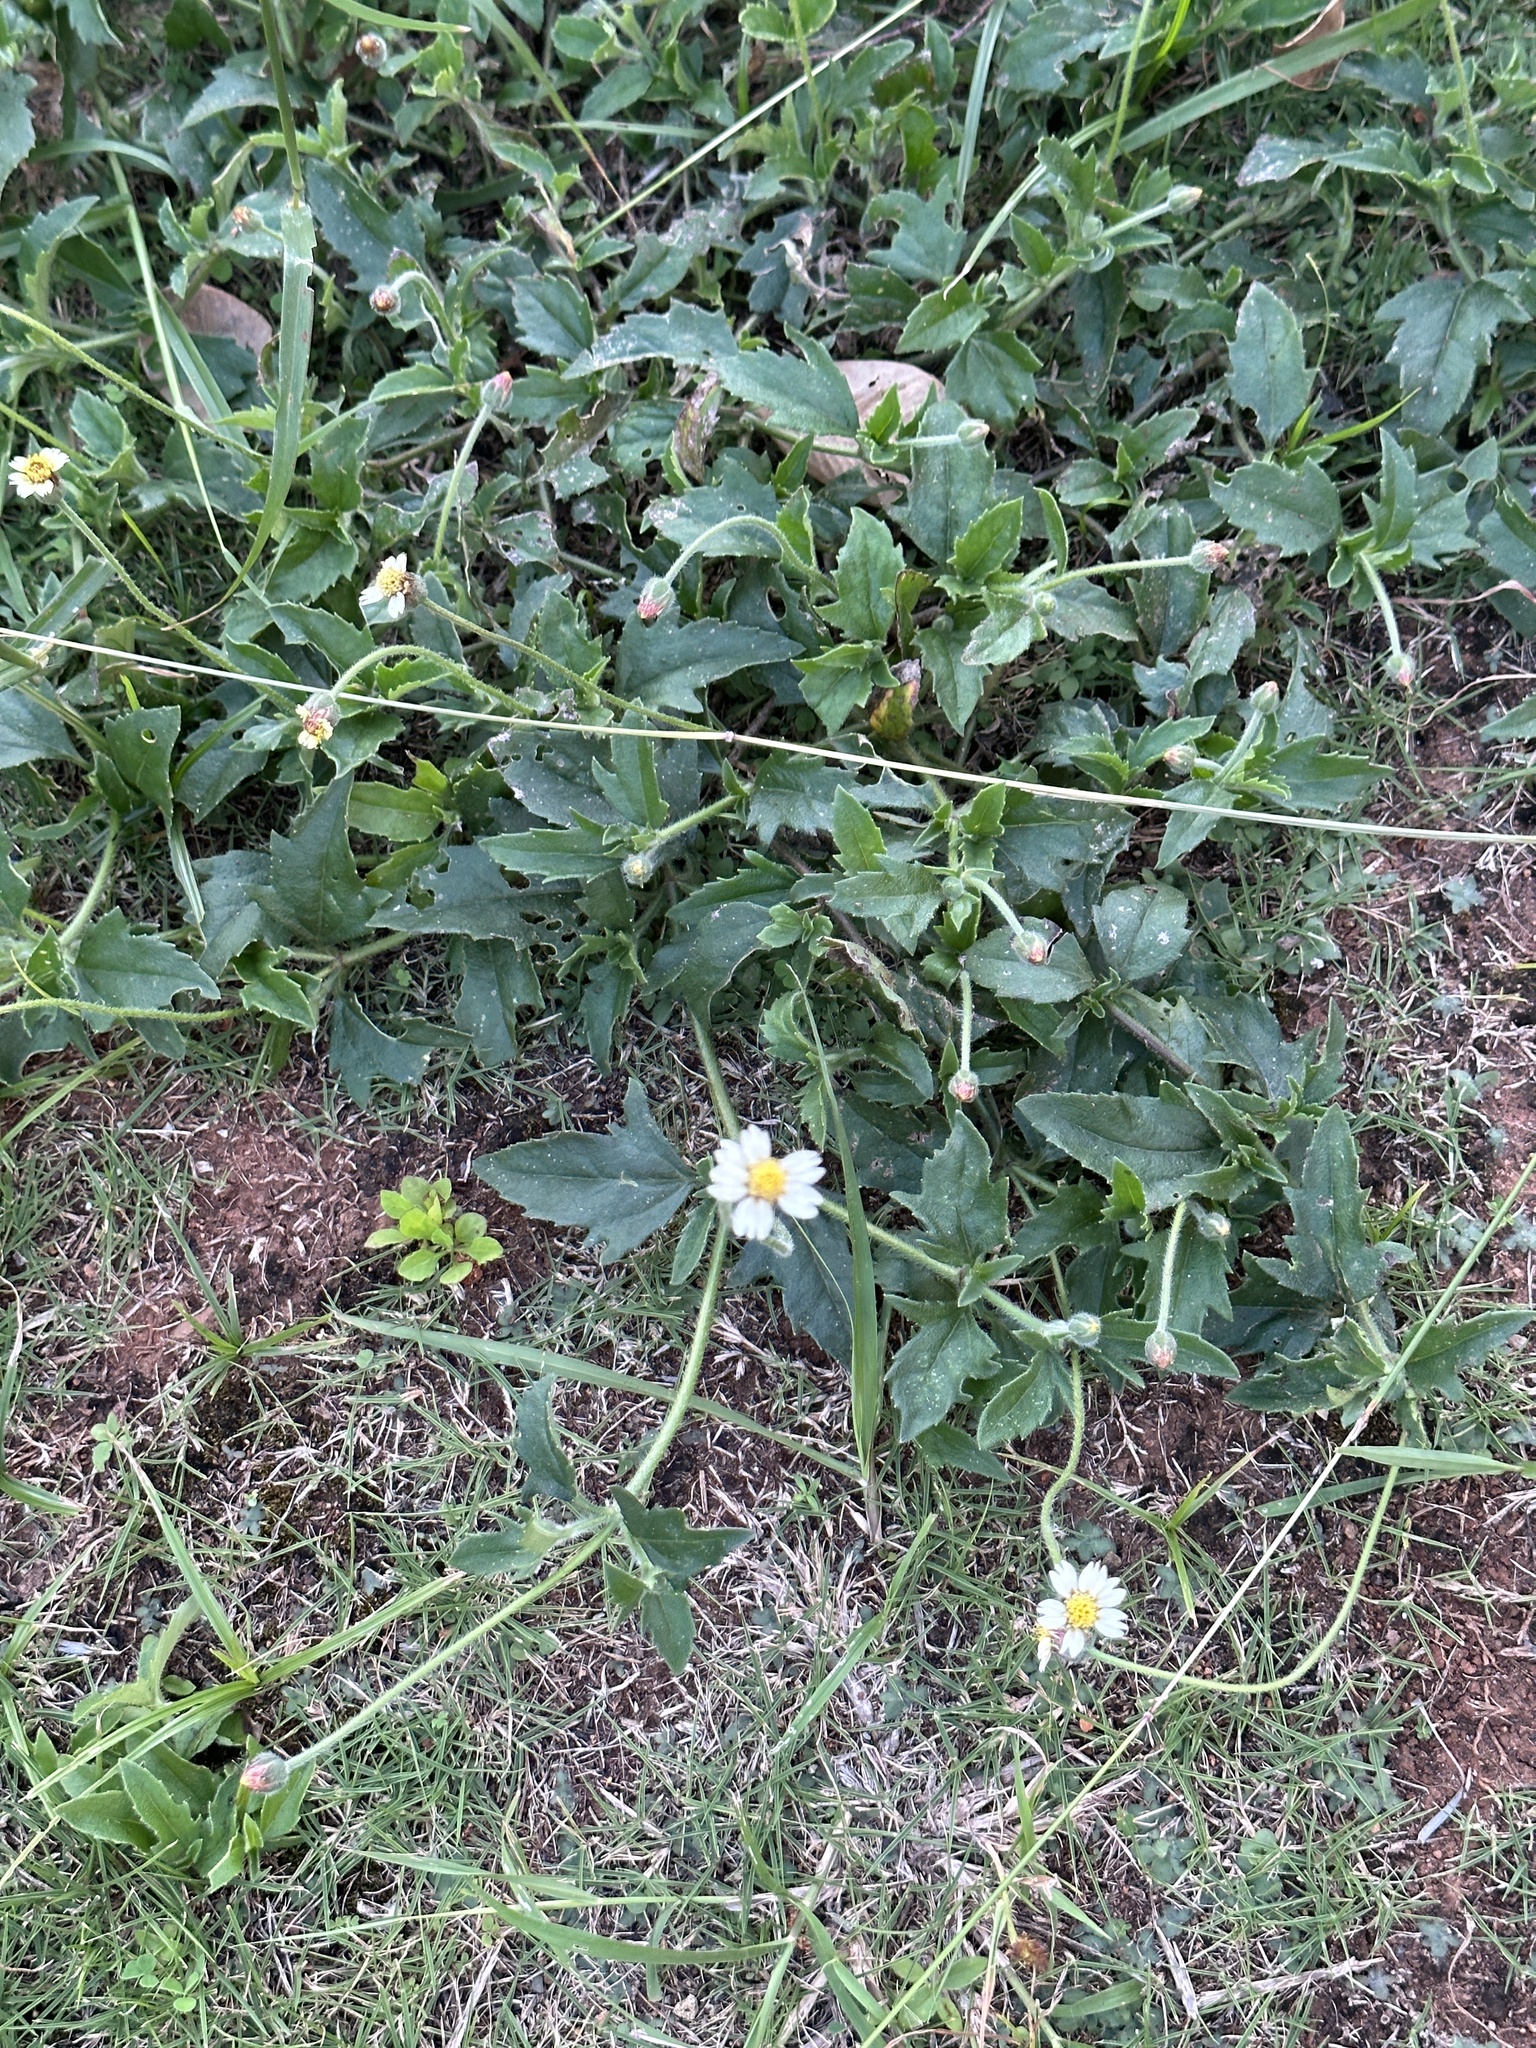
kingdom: Plantae
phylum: Tracheophyta
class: Magnoliopsida
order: Asterales
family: Asteraceae
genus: Tridax
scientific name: Tridax procumbens
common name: Coatbuttons
